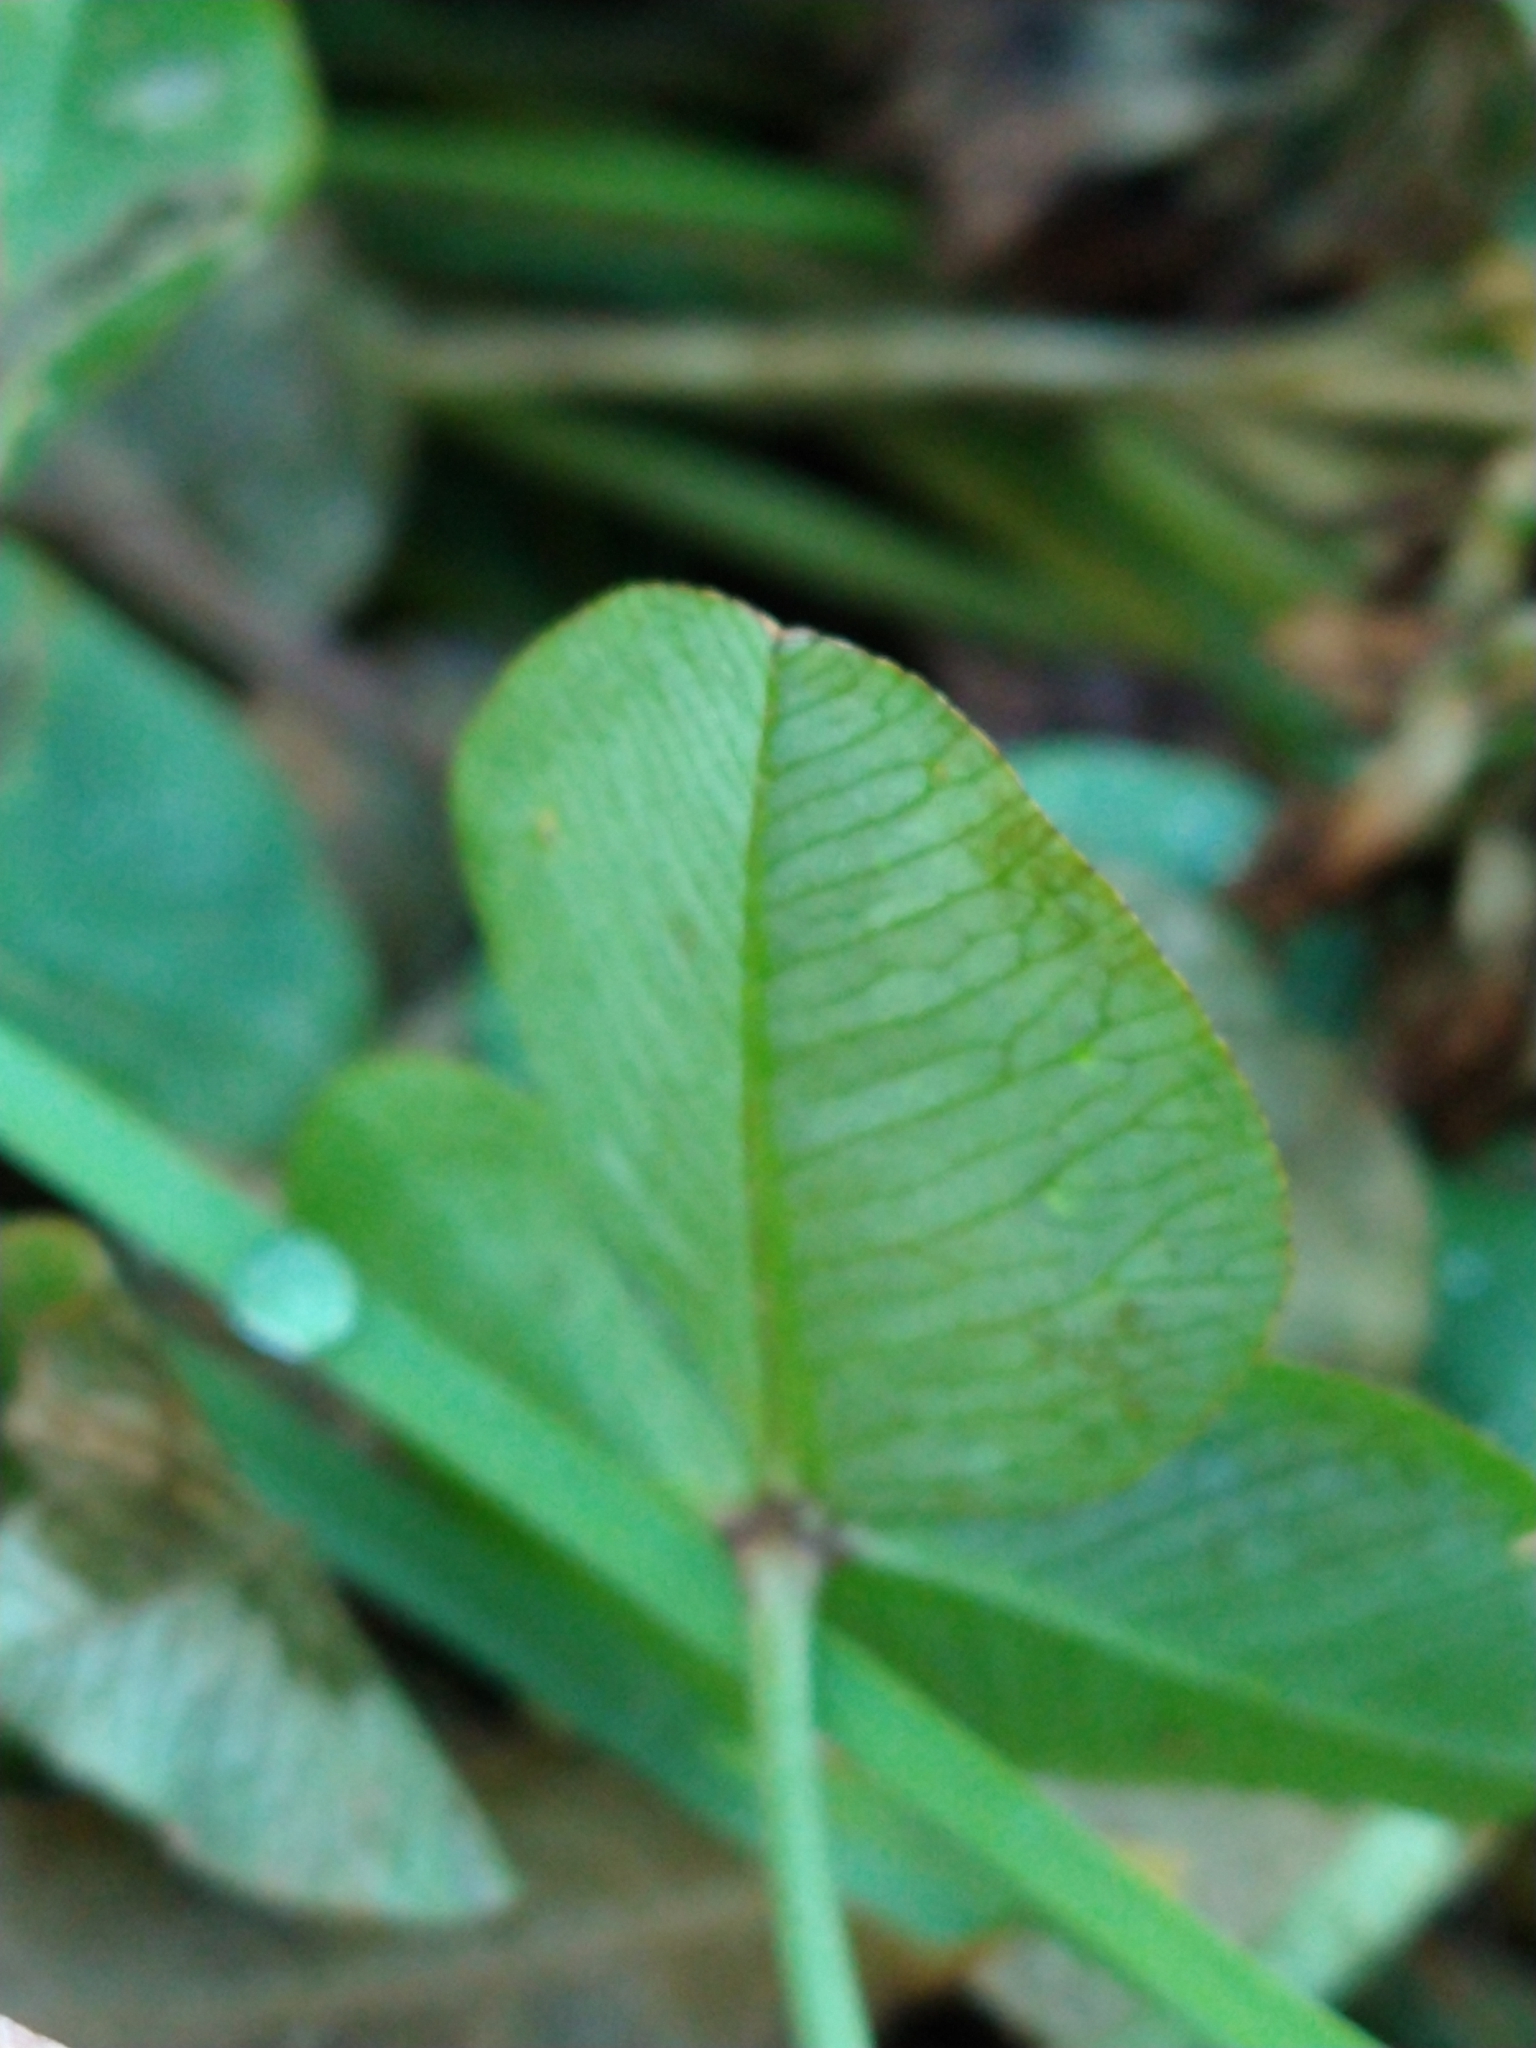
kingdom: Plantae
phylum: Tracheophyta
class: Magnoliopsida
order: Fabales
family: Fabaceae
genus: Trifolium
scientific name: Trifolium repens
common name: White clover
